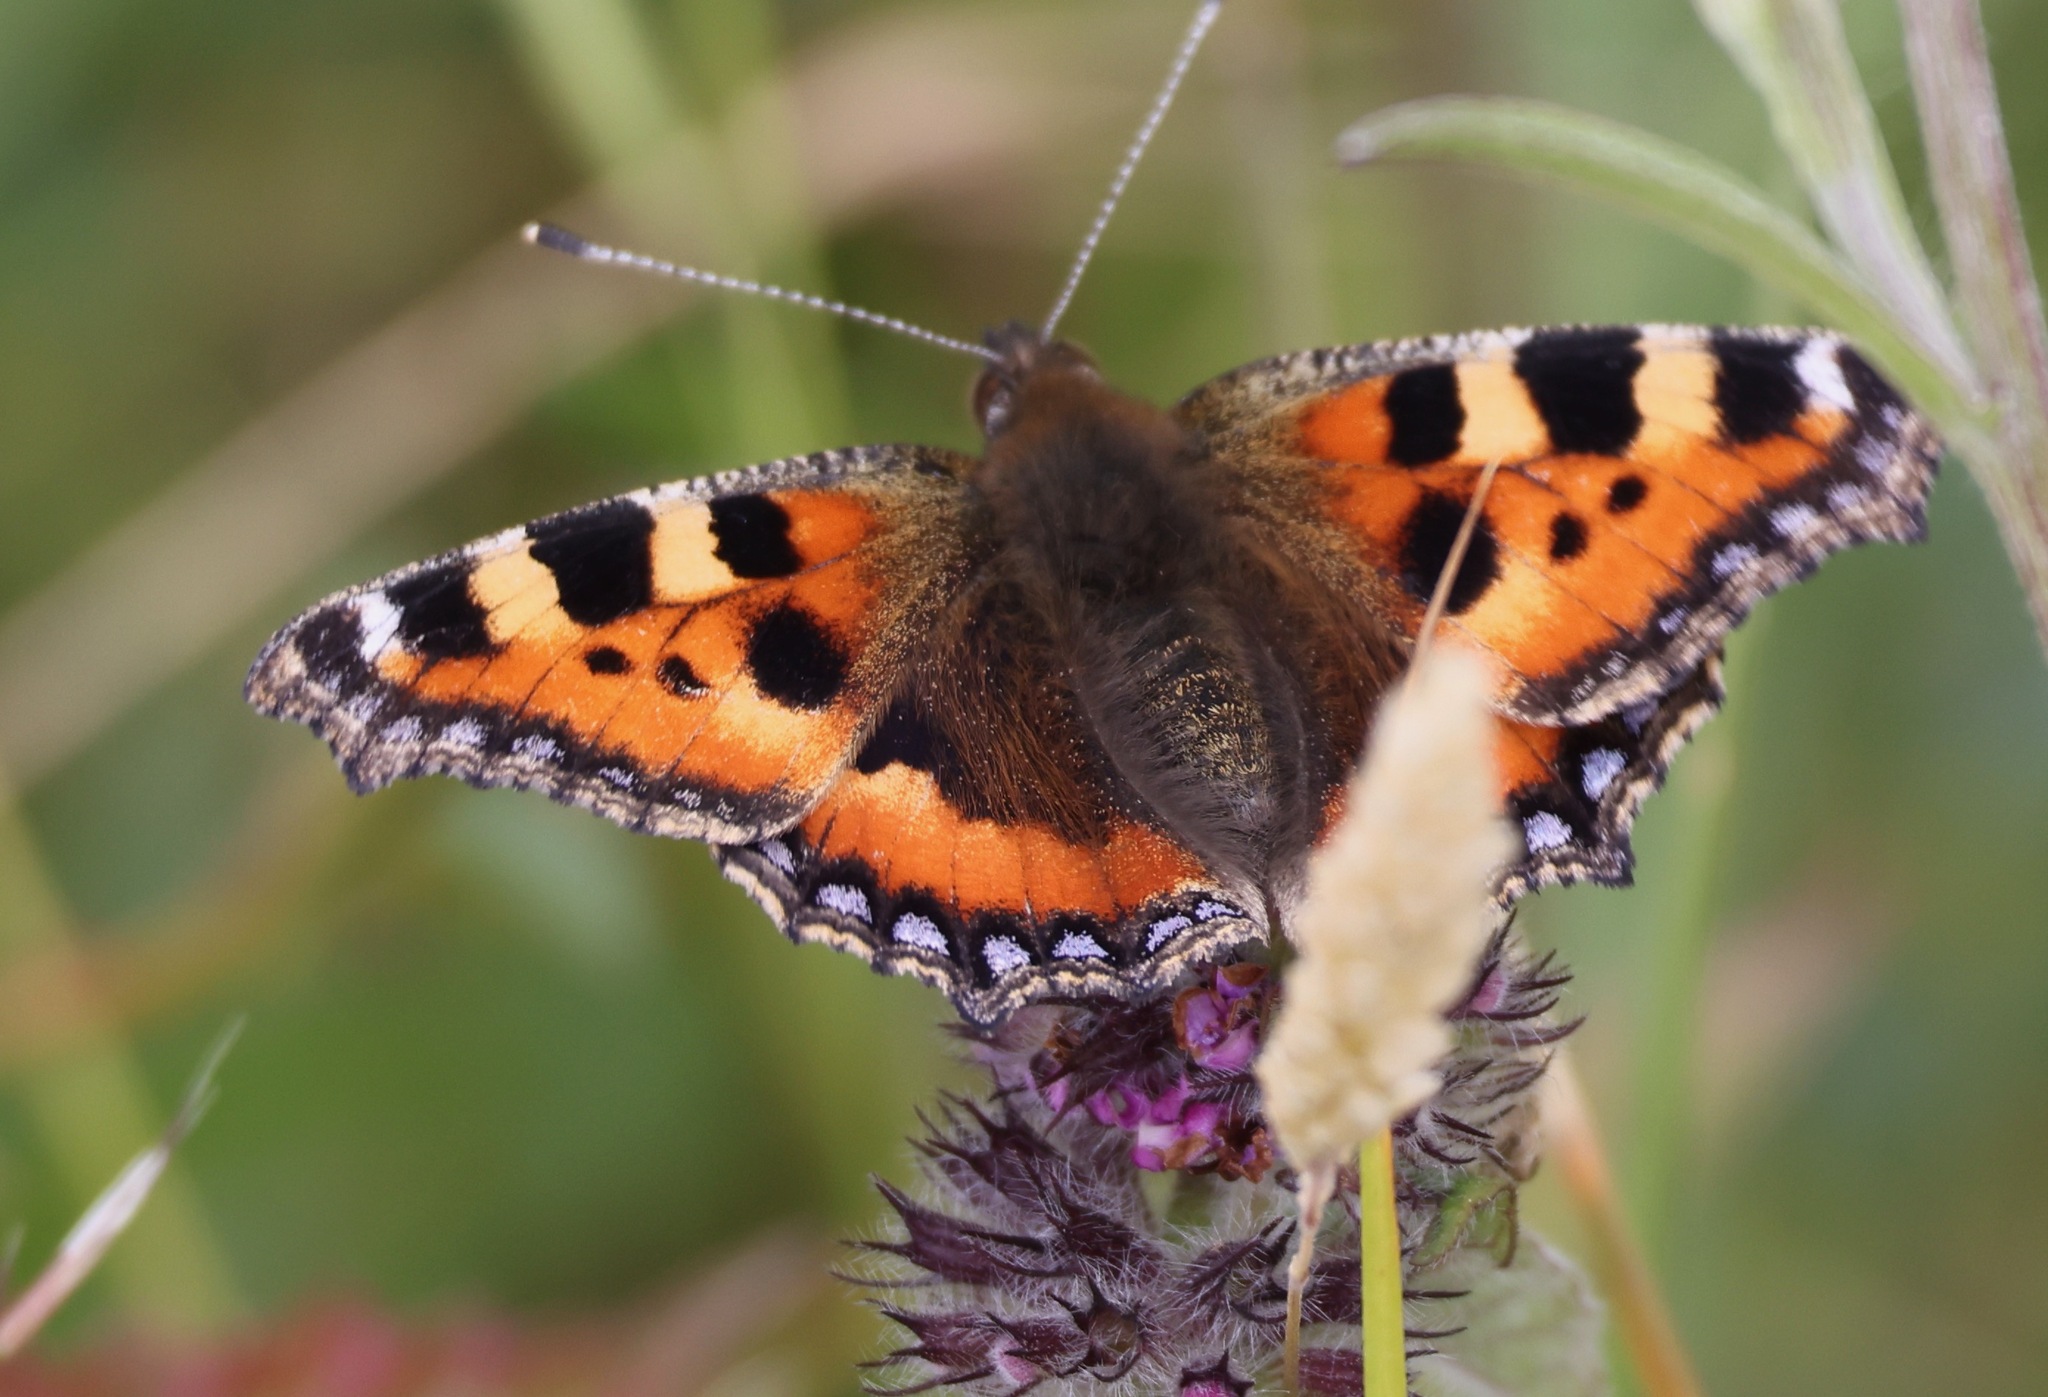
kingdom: Animalia
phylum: Arthropoda
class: Insecta
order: Lepidoptera
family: Nymphalidae
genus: Aglais
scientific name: Aglais urticae
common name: Small tortoiseshell
